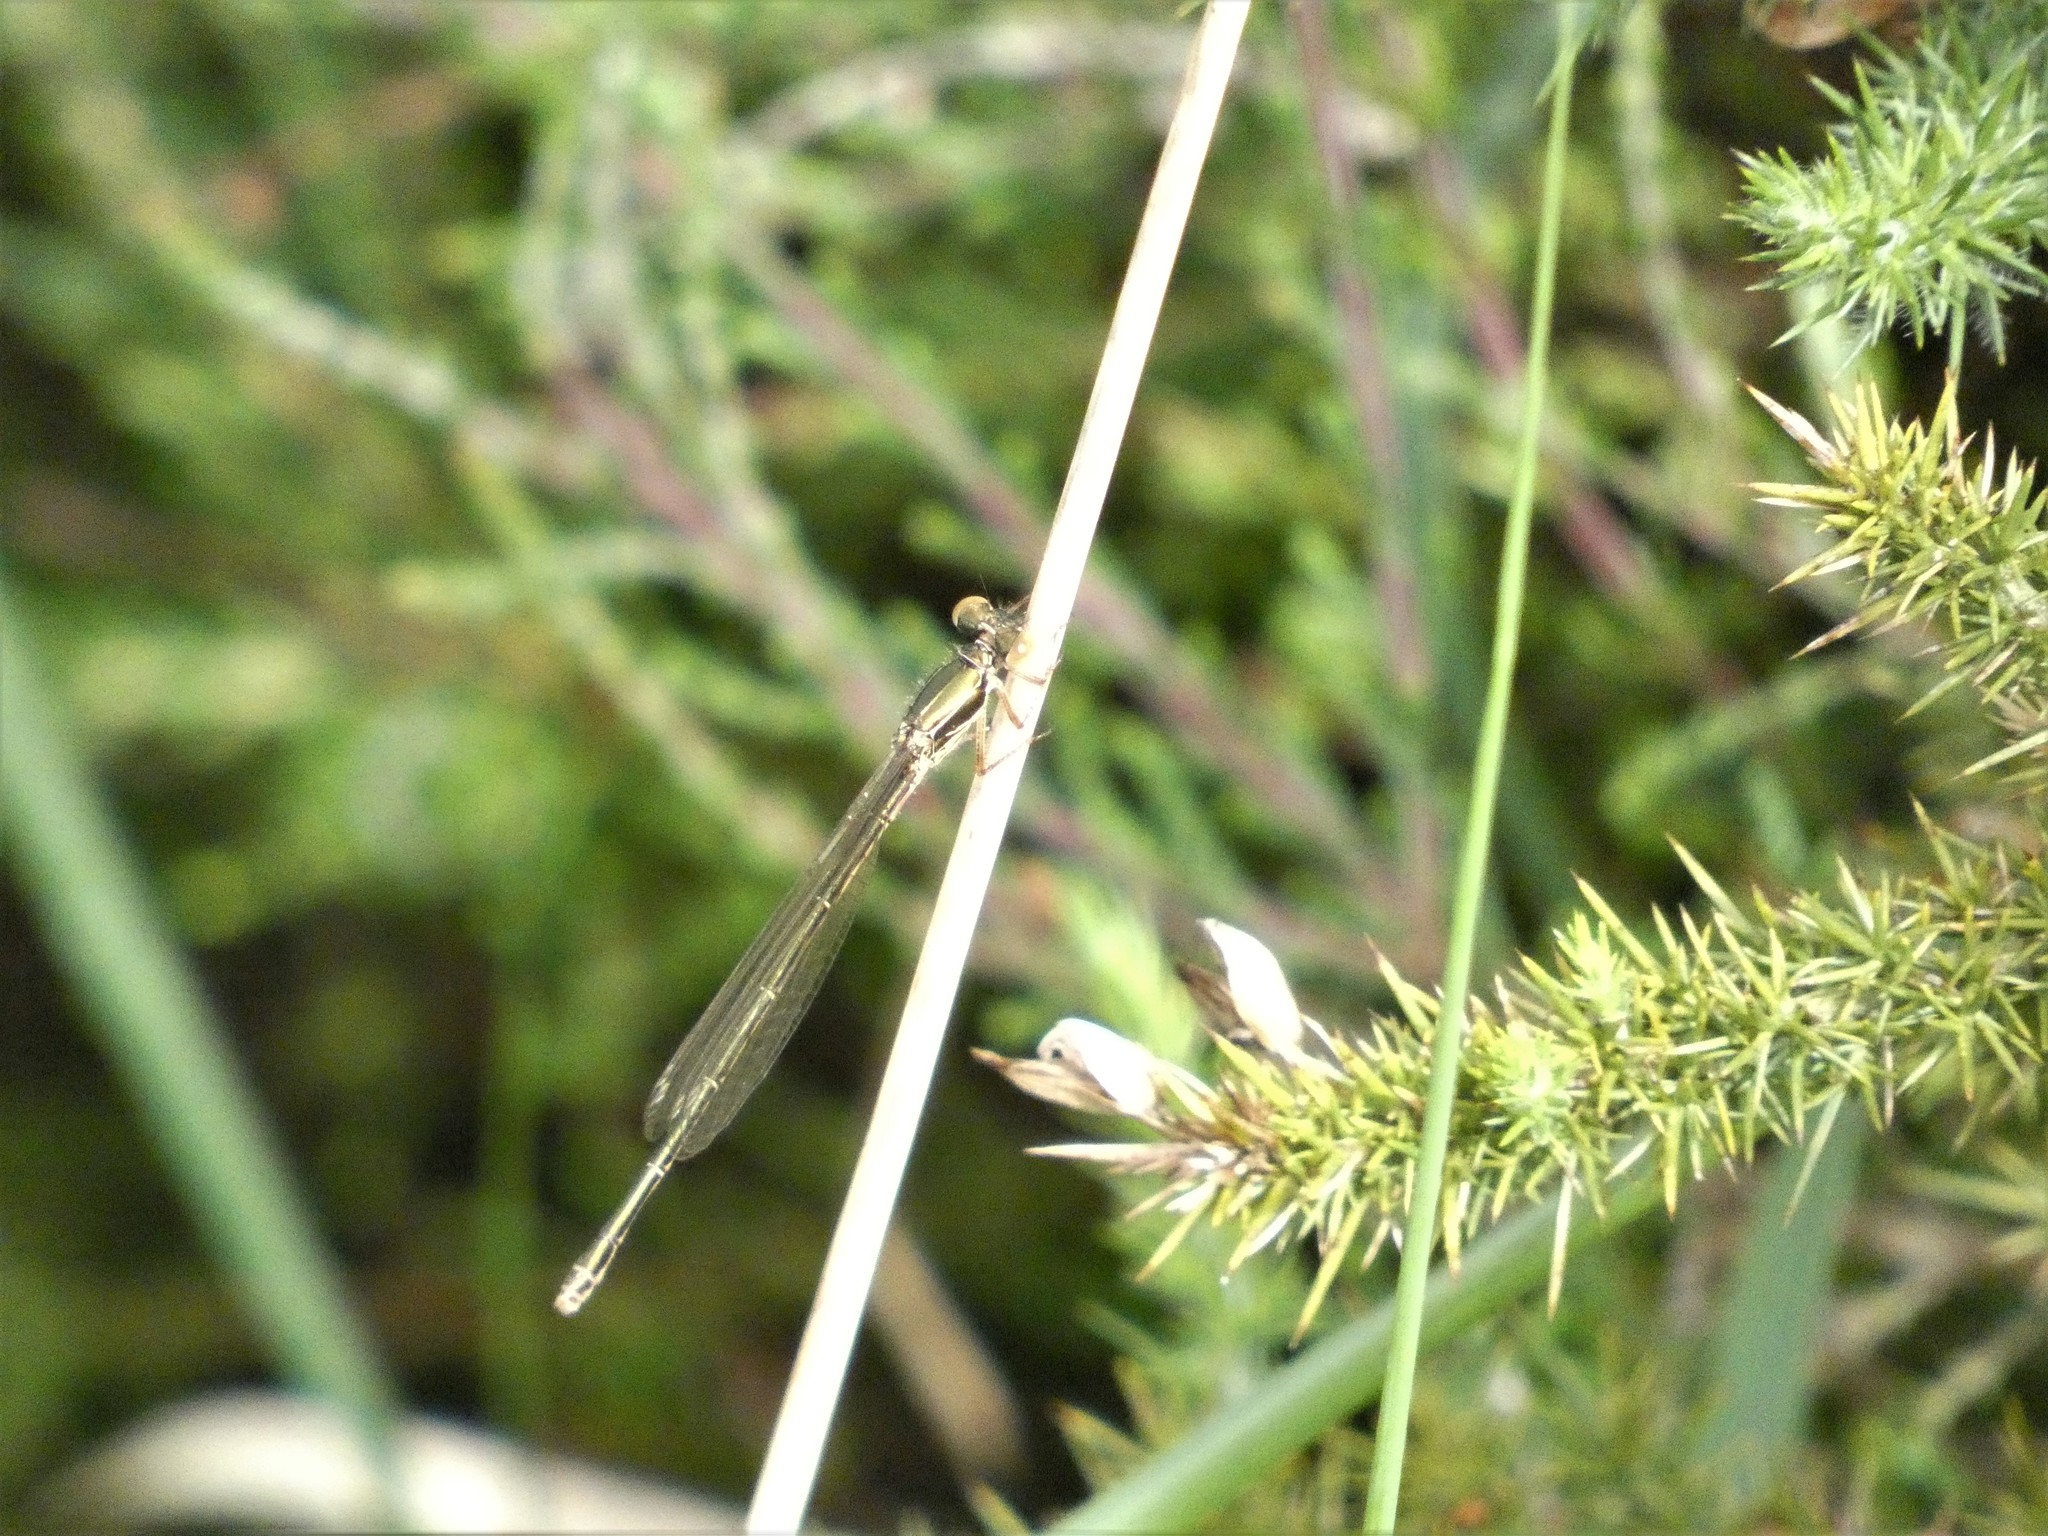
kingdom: Animalia
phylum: Arthropoda
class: Insecta
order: Odonata
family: Lestidae
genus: Chalcolestes
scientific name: Chalcolestes viridis
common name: Green emerald damselfly
